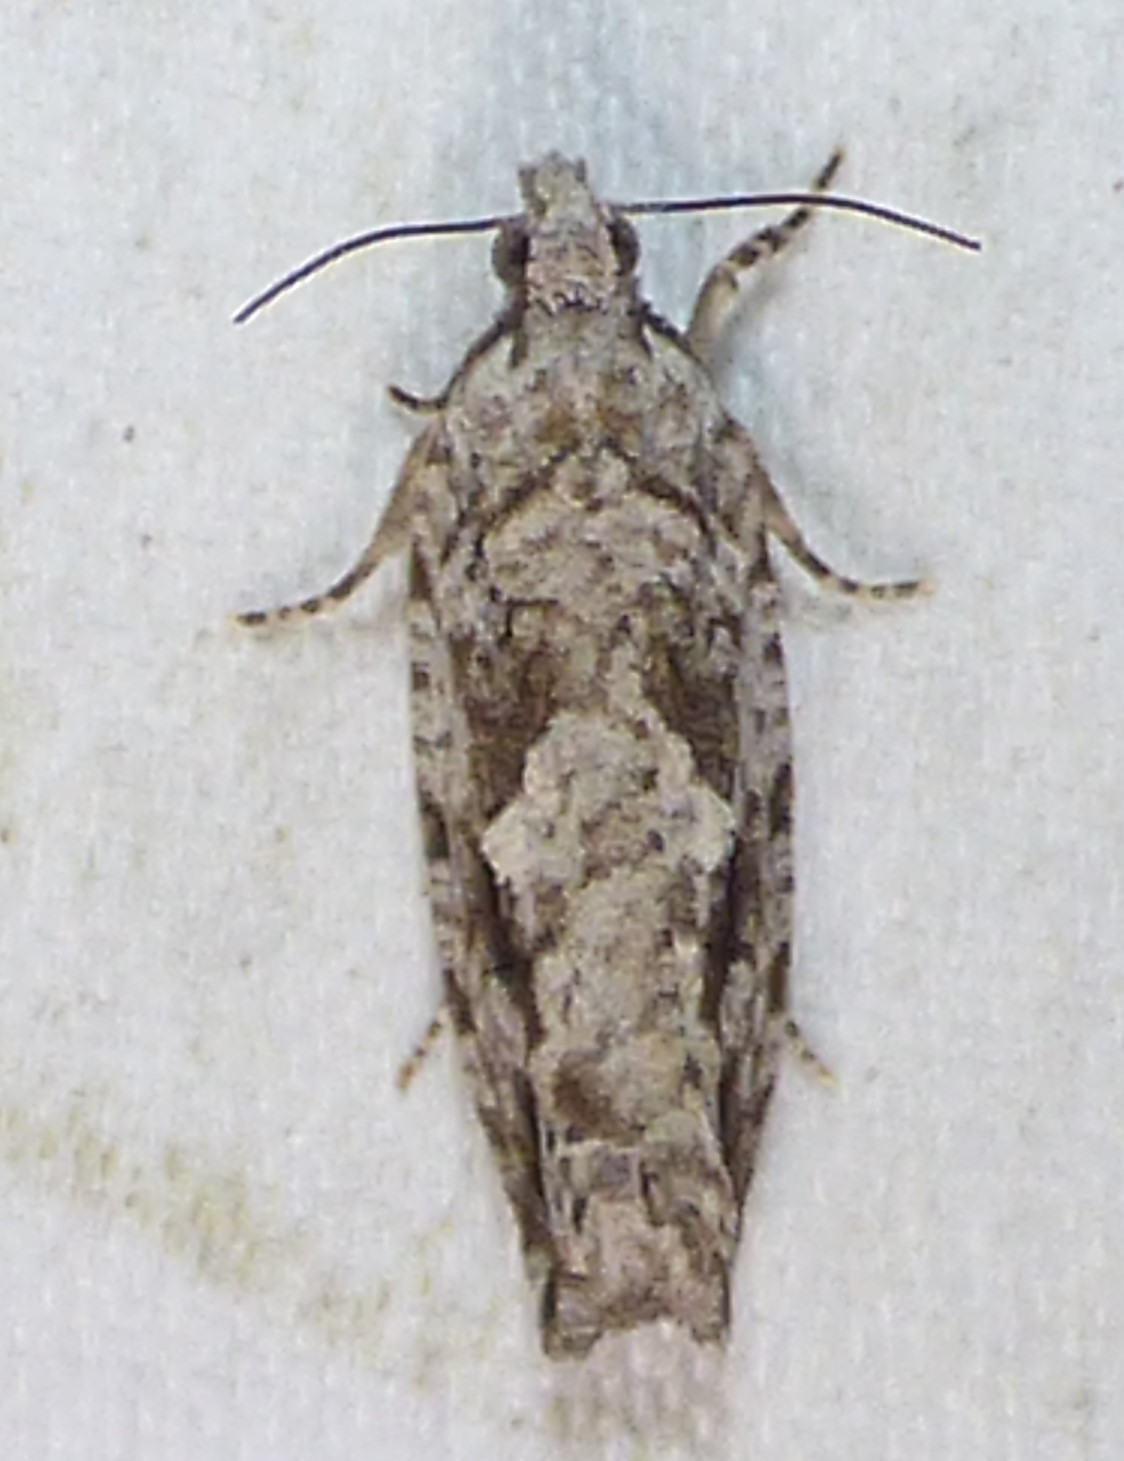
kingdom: Animalia
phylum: Arthropoda
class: Insecta
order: Lepidoptera
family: Tortricidae
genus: Gretchena
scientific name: Gretchena bolliana
